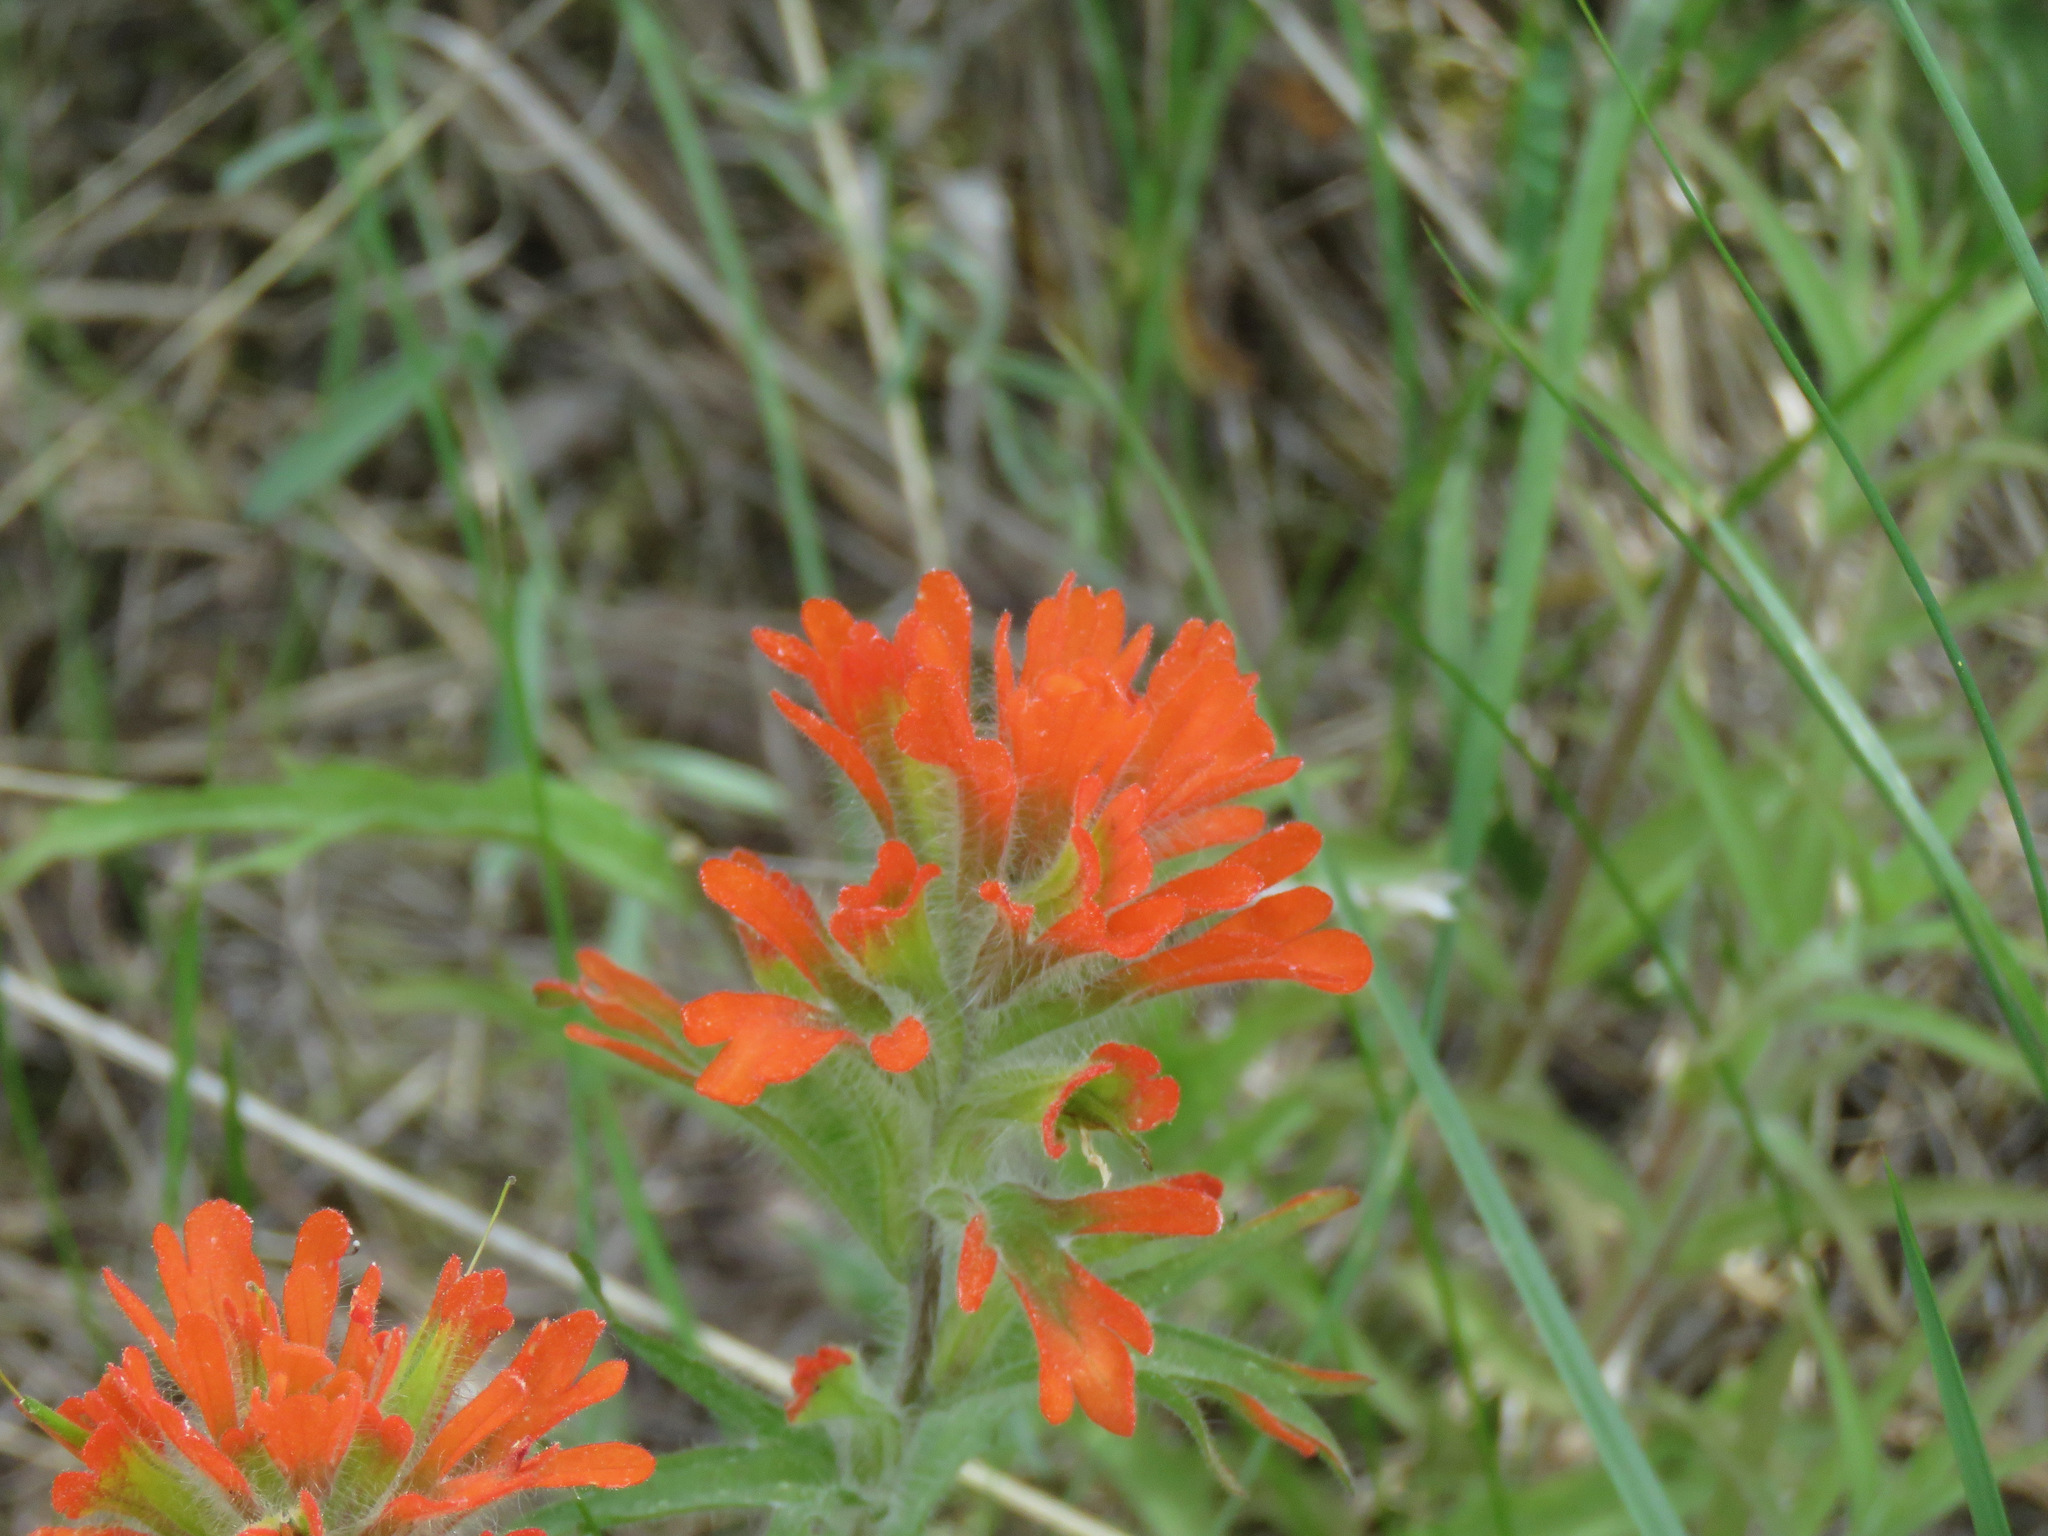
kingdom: Plantae
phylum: Tracheophyta
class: Magnoliopsida
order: Lamiales
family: Orobanchaceae
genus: Castilleja
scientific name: Castilleja hispida
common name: Bristly paintbrush
